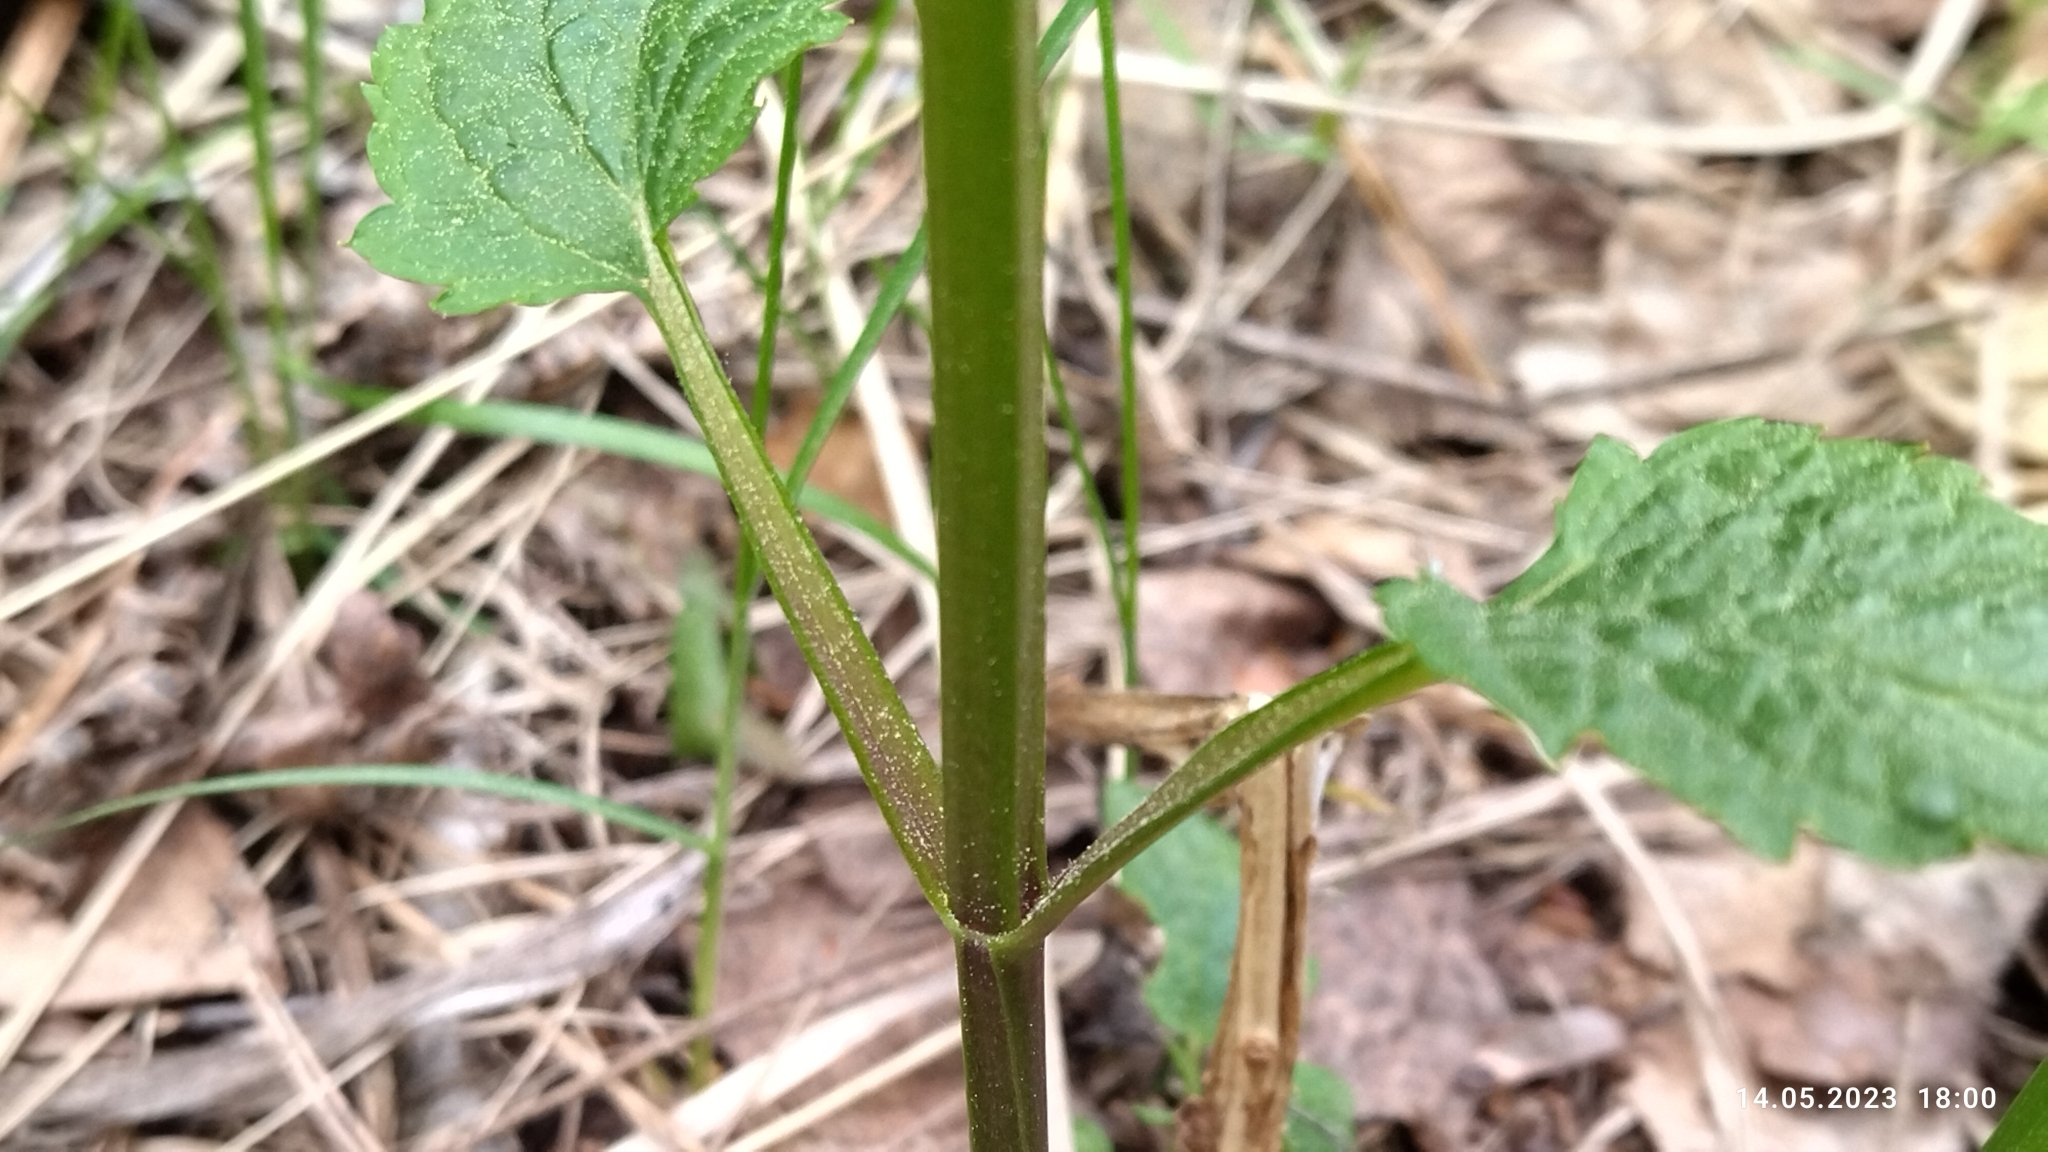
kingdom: Plantae
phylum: Tracheophyta
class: Magnoliopsida
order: Lamiales
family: Scrophulariaceae
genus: Scrophularia
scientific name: Scrophularia nodosa
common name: Common figwort
